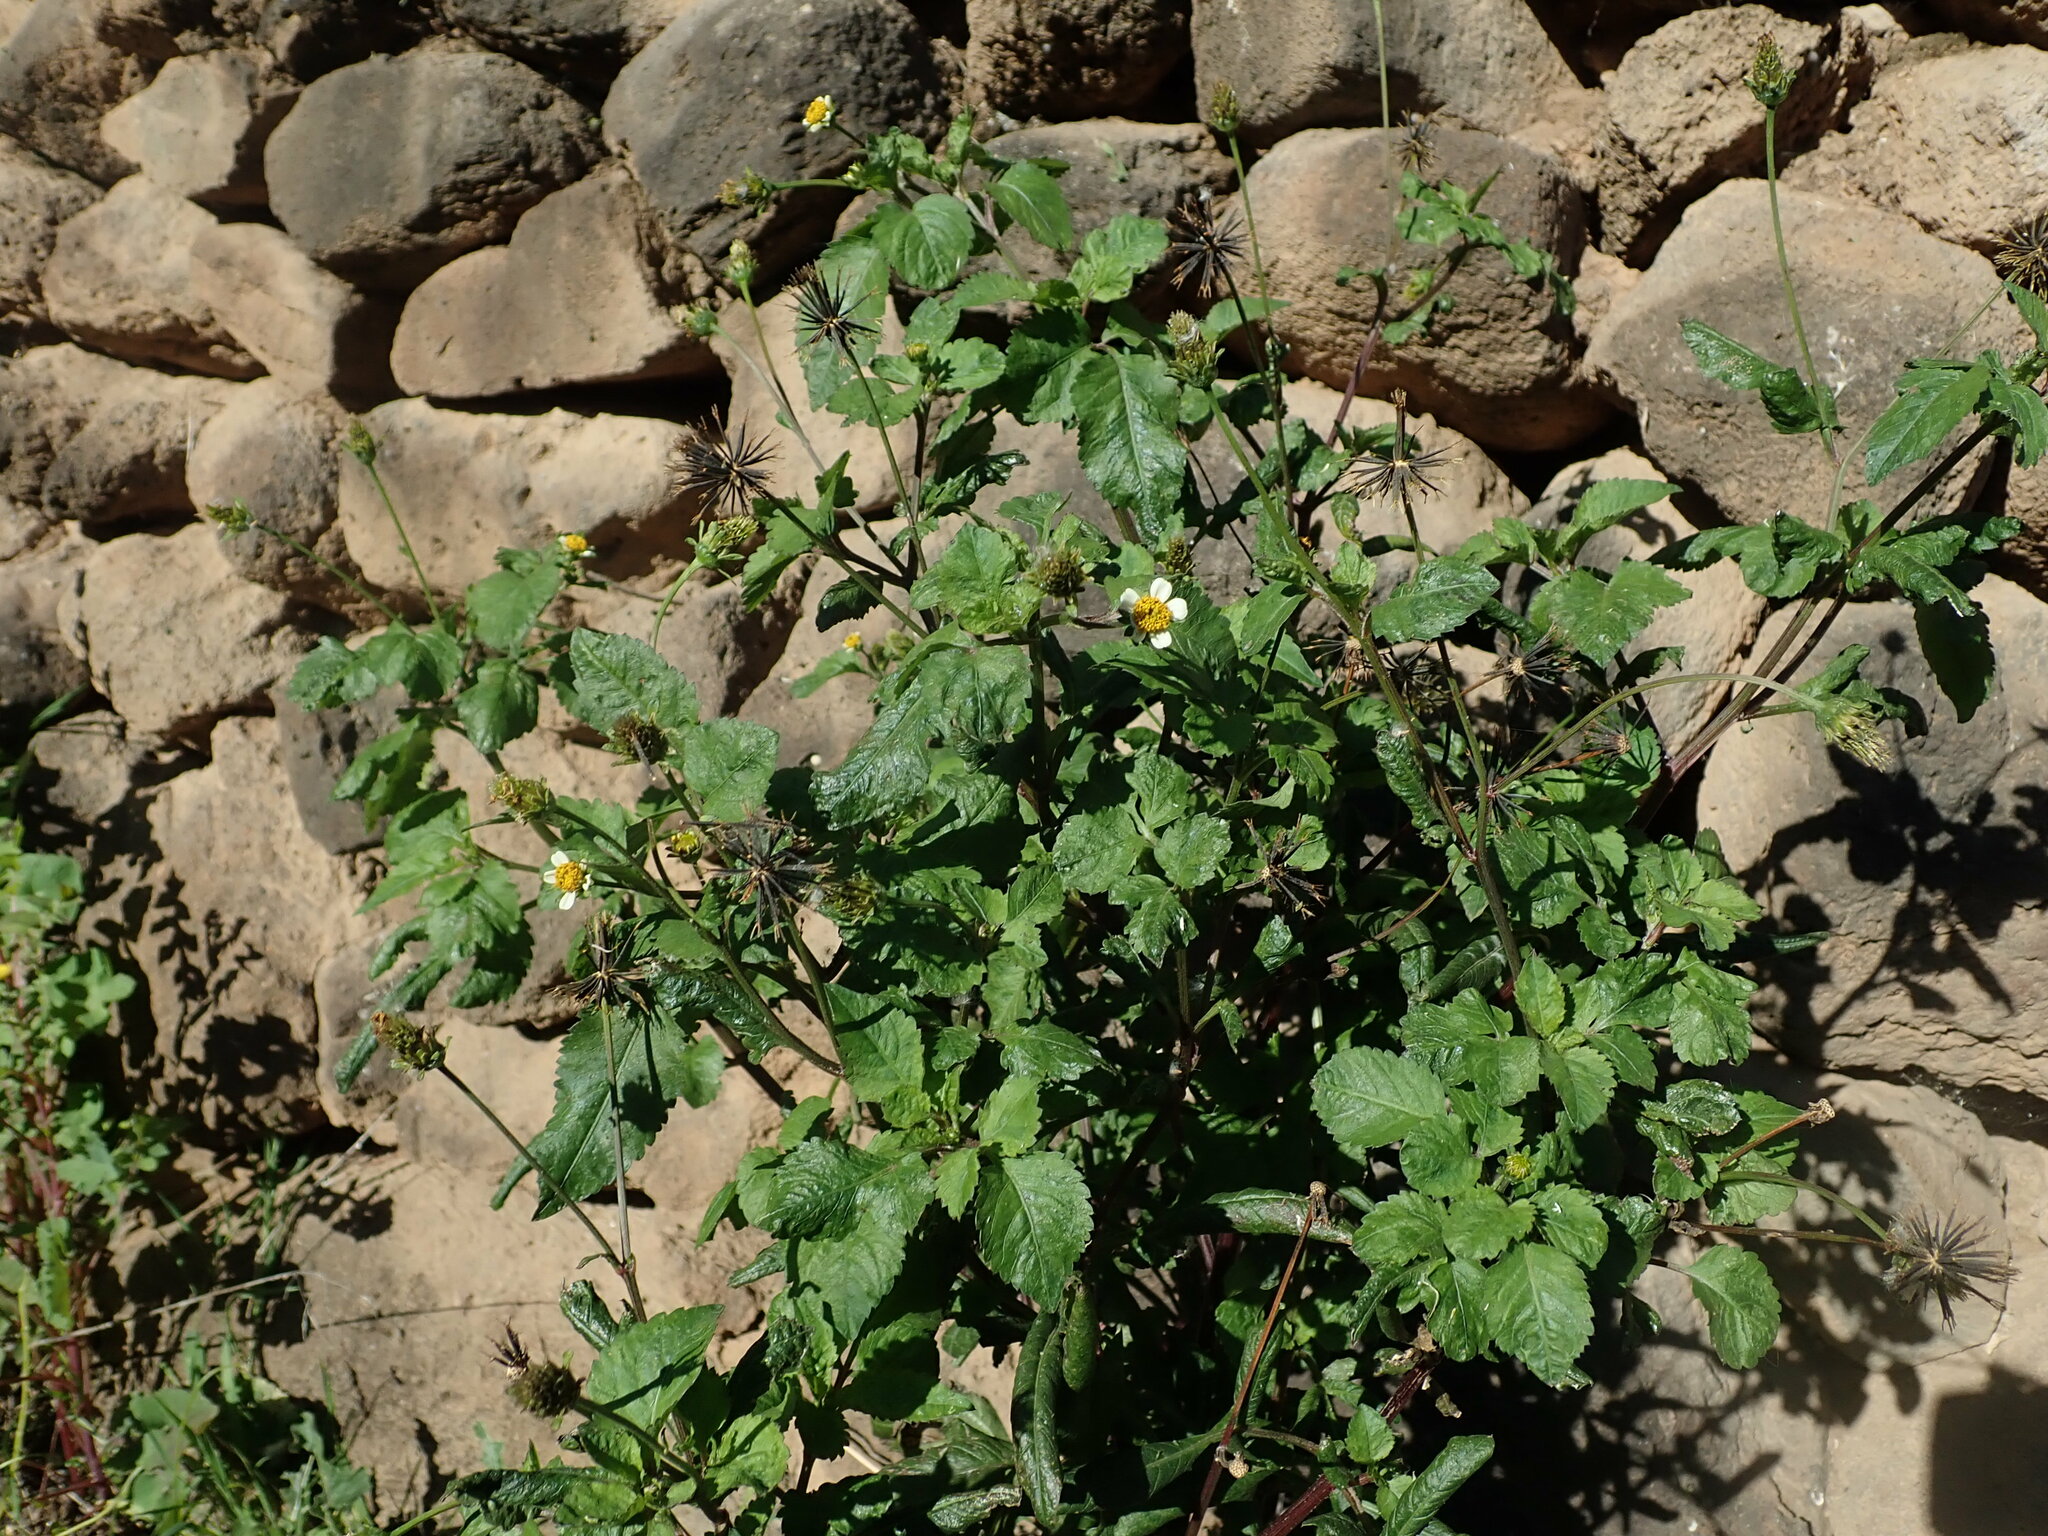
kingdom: Plantae
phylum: Tracheophyta
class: Magnoliopsida
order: Asterales
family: Asteraceae
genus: Bidens
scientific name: Bidens pilosa
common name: Black-jack
